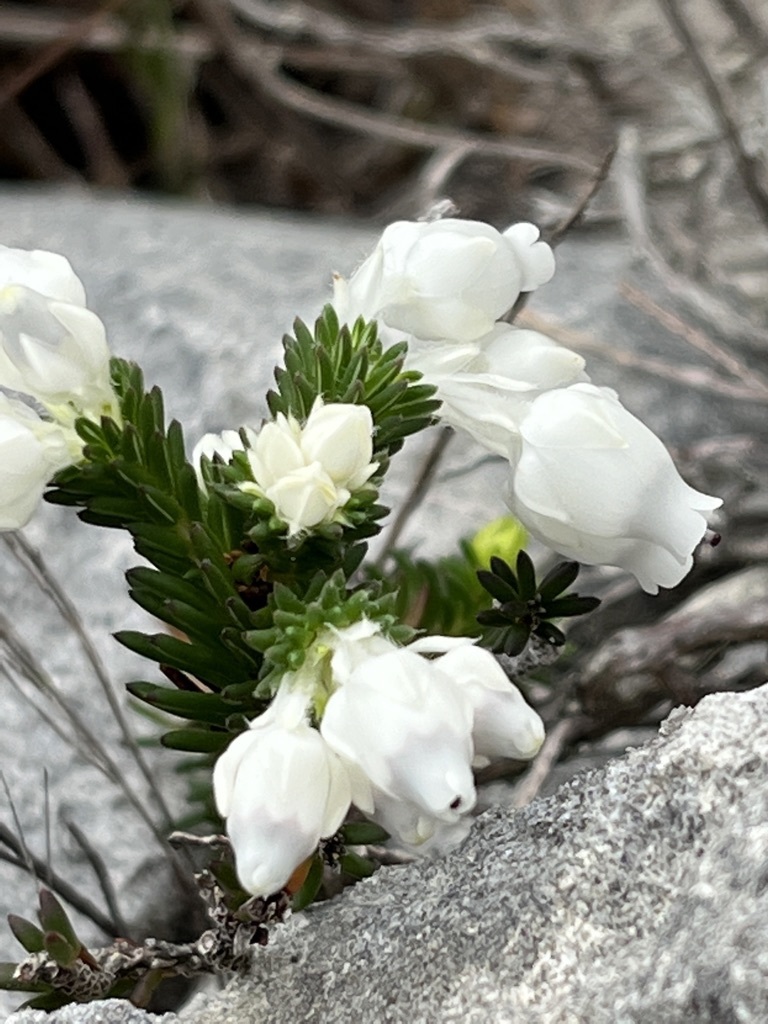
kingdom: Plantae
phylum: Tracheophyta
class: Magnoliopsida
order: Ericales
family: Ericaceae
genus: Erica
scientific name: Erica calcareophila
